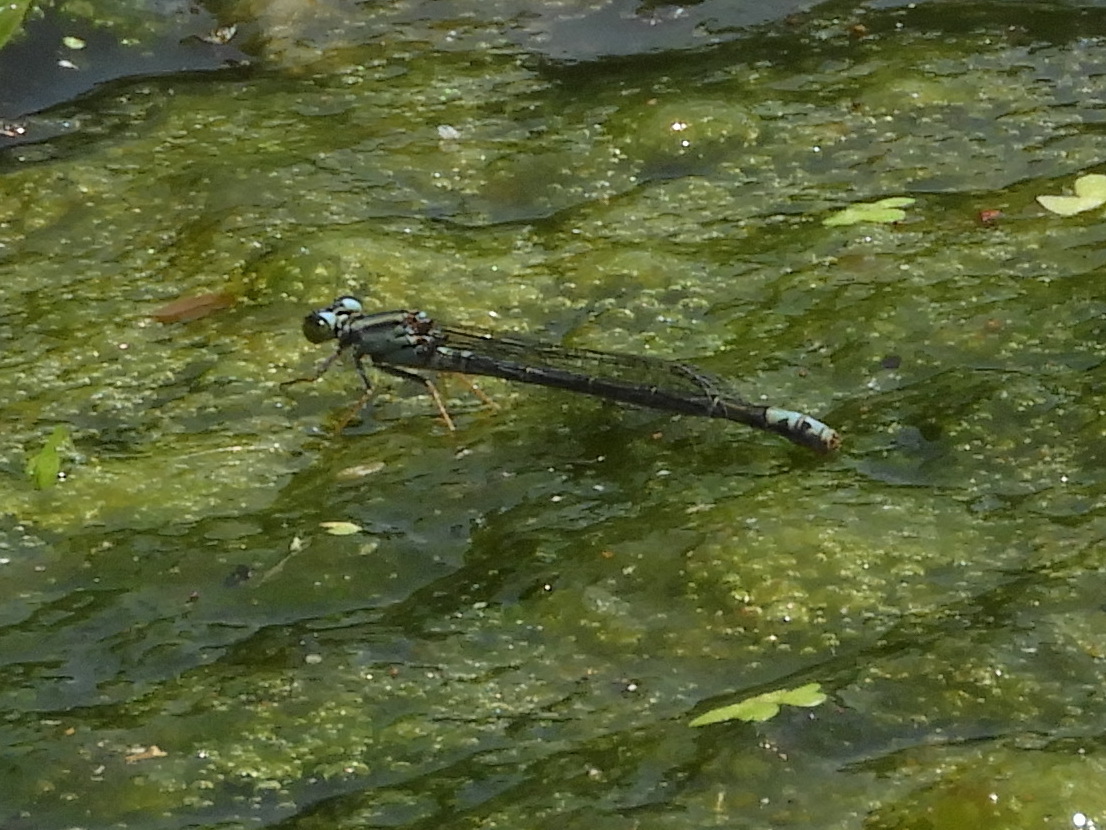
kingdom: Animalia
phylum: Arthropoda
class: Insecta
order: Odonata
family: Coenagrionidae
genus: Ischnura
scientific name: Ischnura kellicotti
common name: Lilypad forktail
